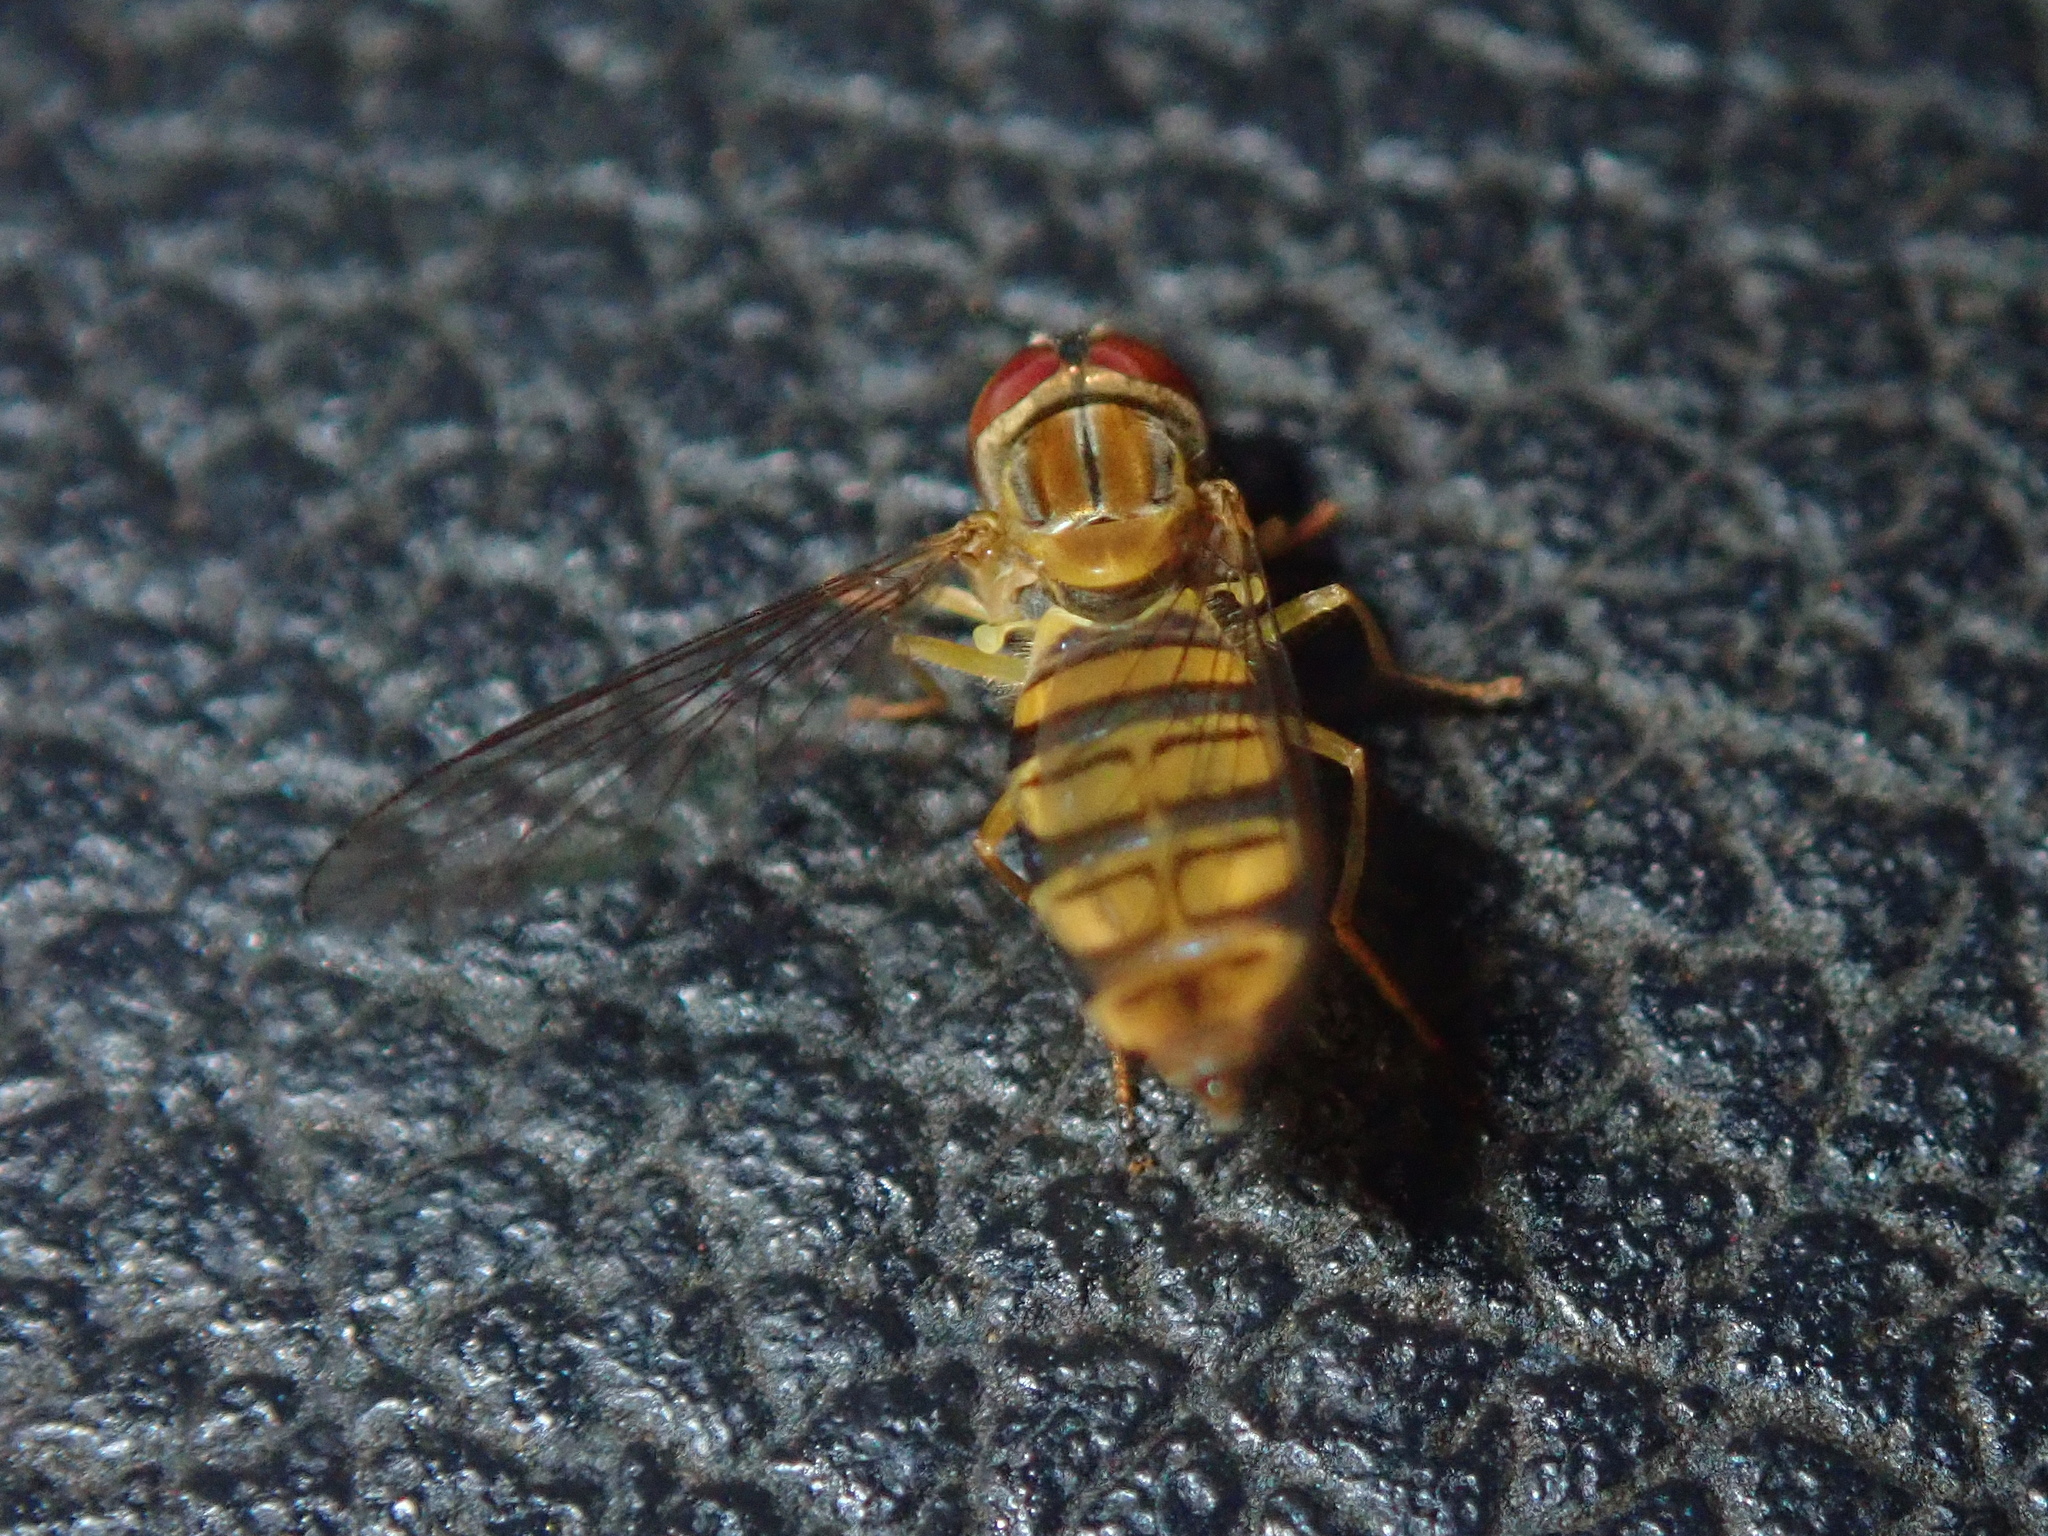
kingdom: Animalia
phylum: Arthropoda
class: Insecta
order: Diptera
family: Syrphidae
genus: Toxomerus
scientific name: Toxomerus politus
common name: Maize calligrapher
